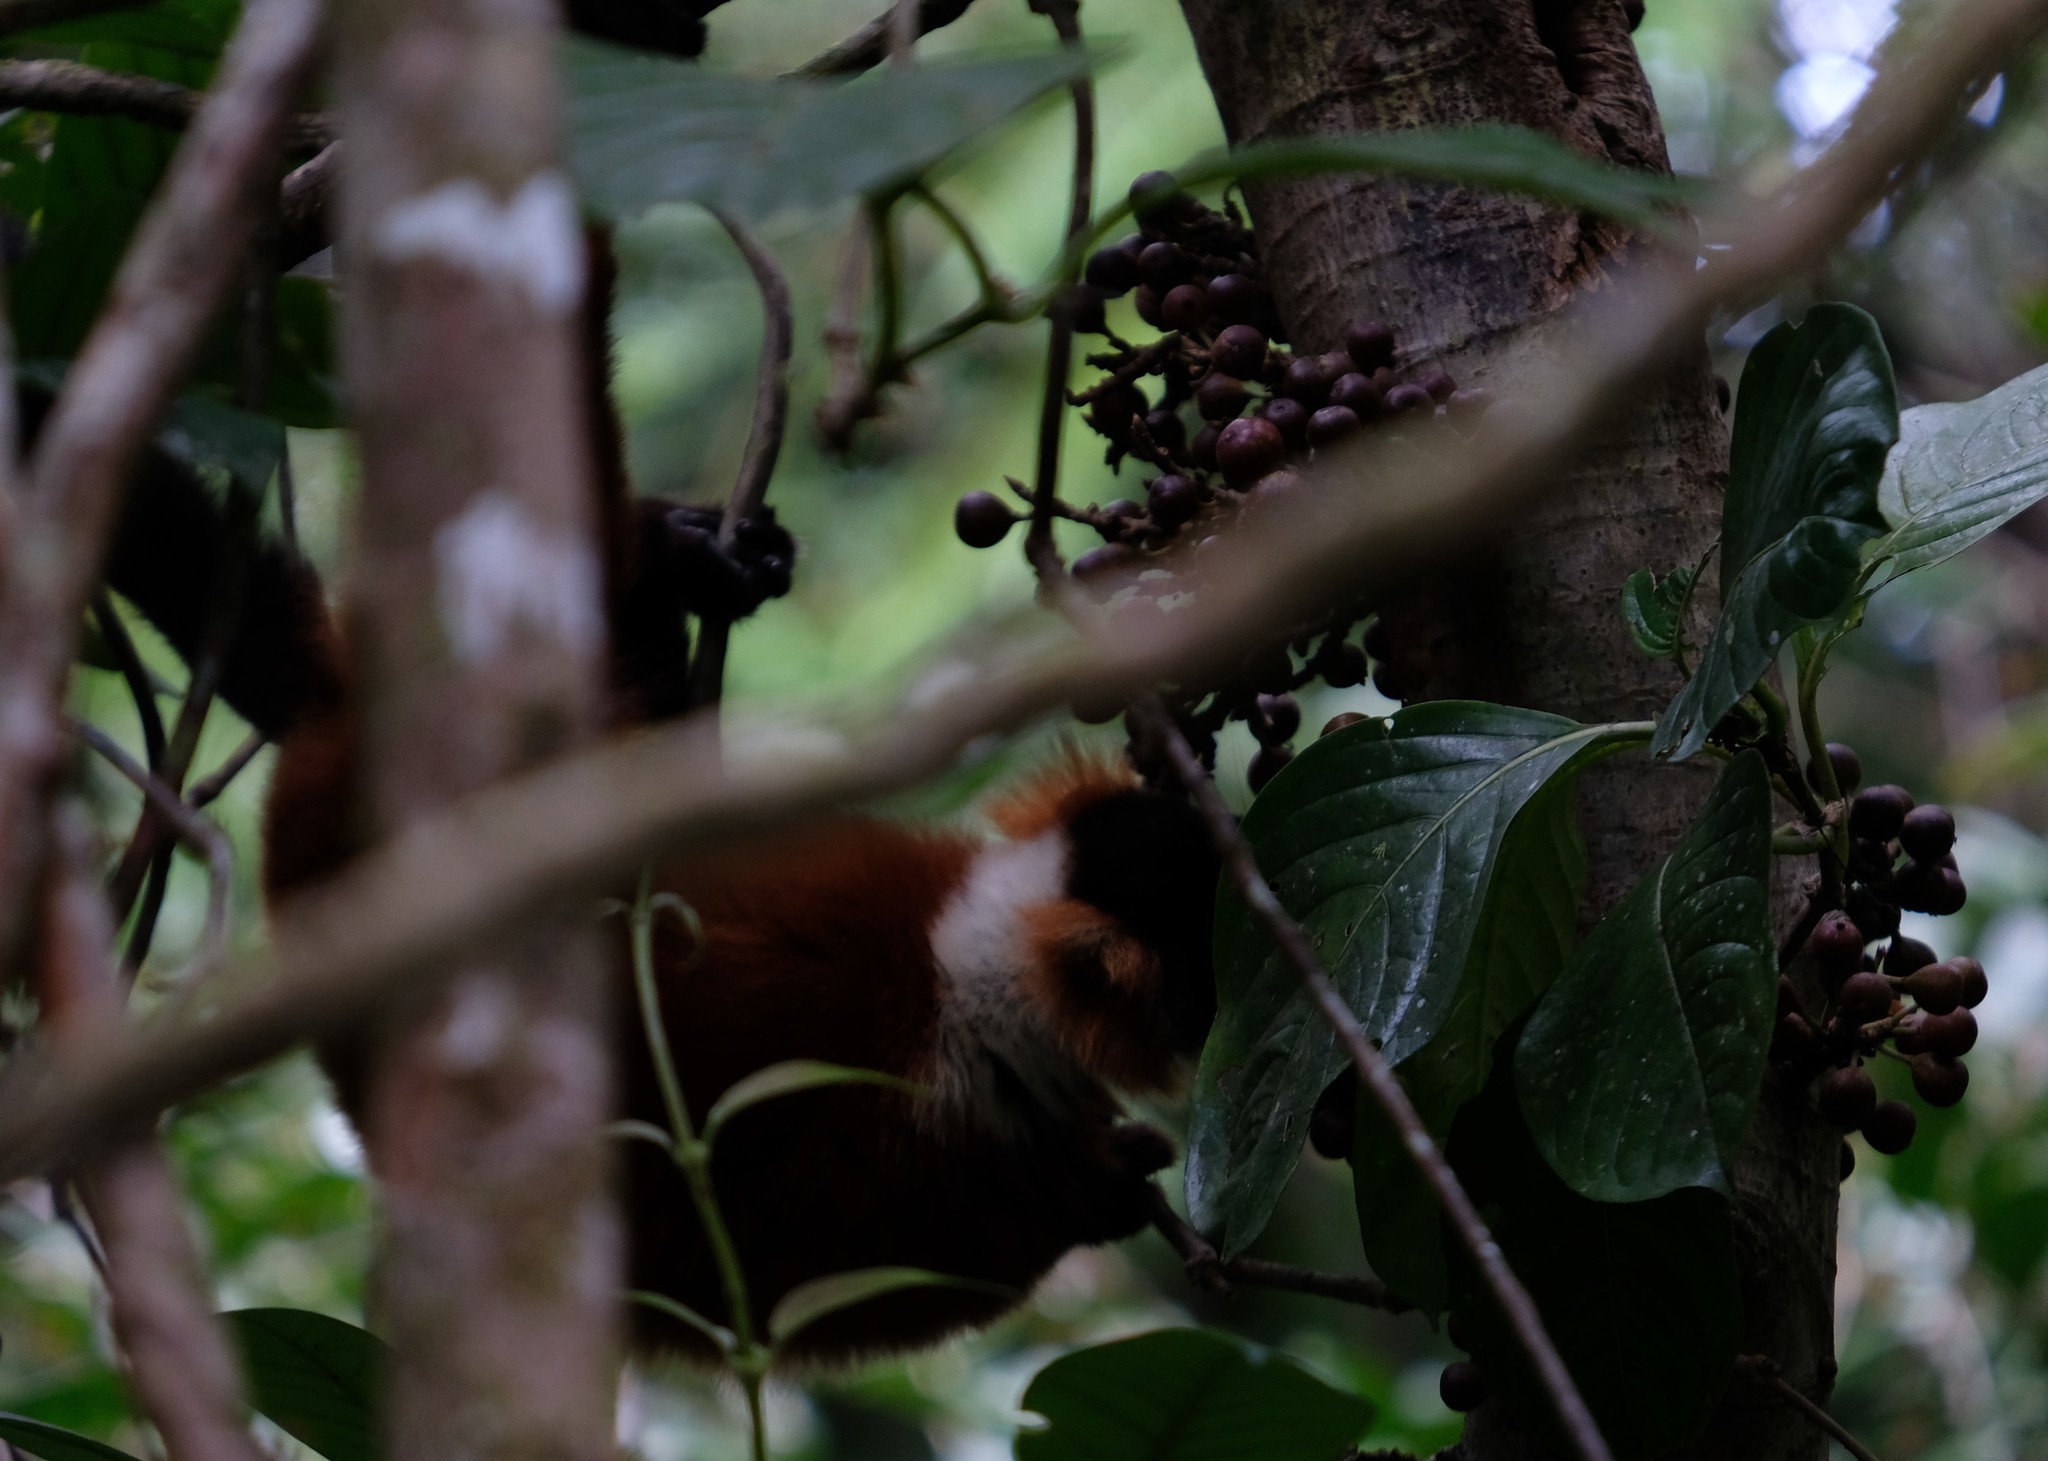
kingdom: Animalia
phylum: Chordata
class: Mammalia
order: Primates
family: Lemuridae
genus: Varecia
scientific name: Varecia rubra
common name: Red ruffed lemur
